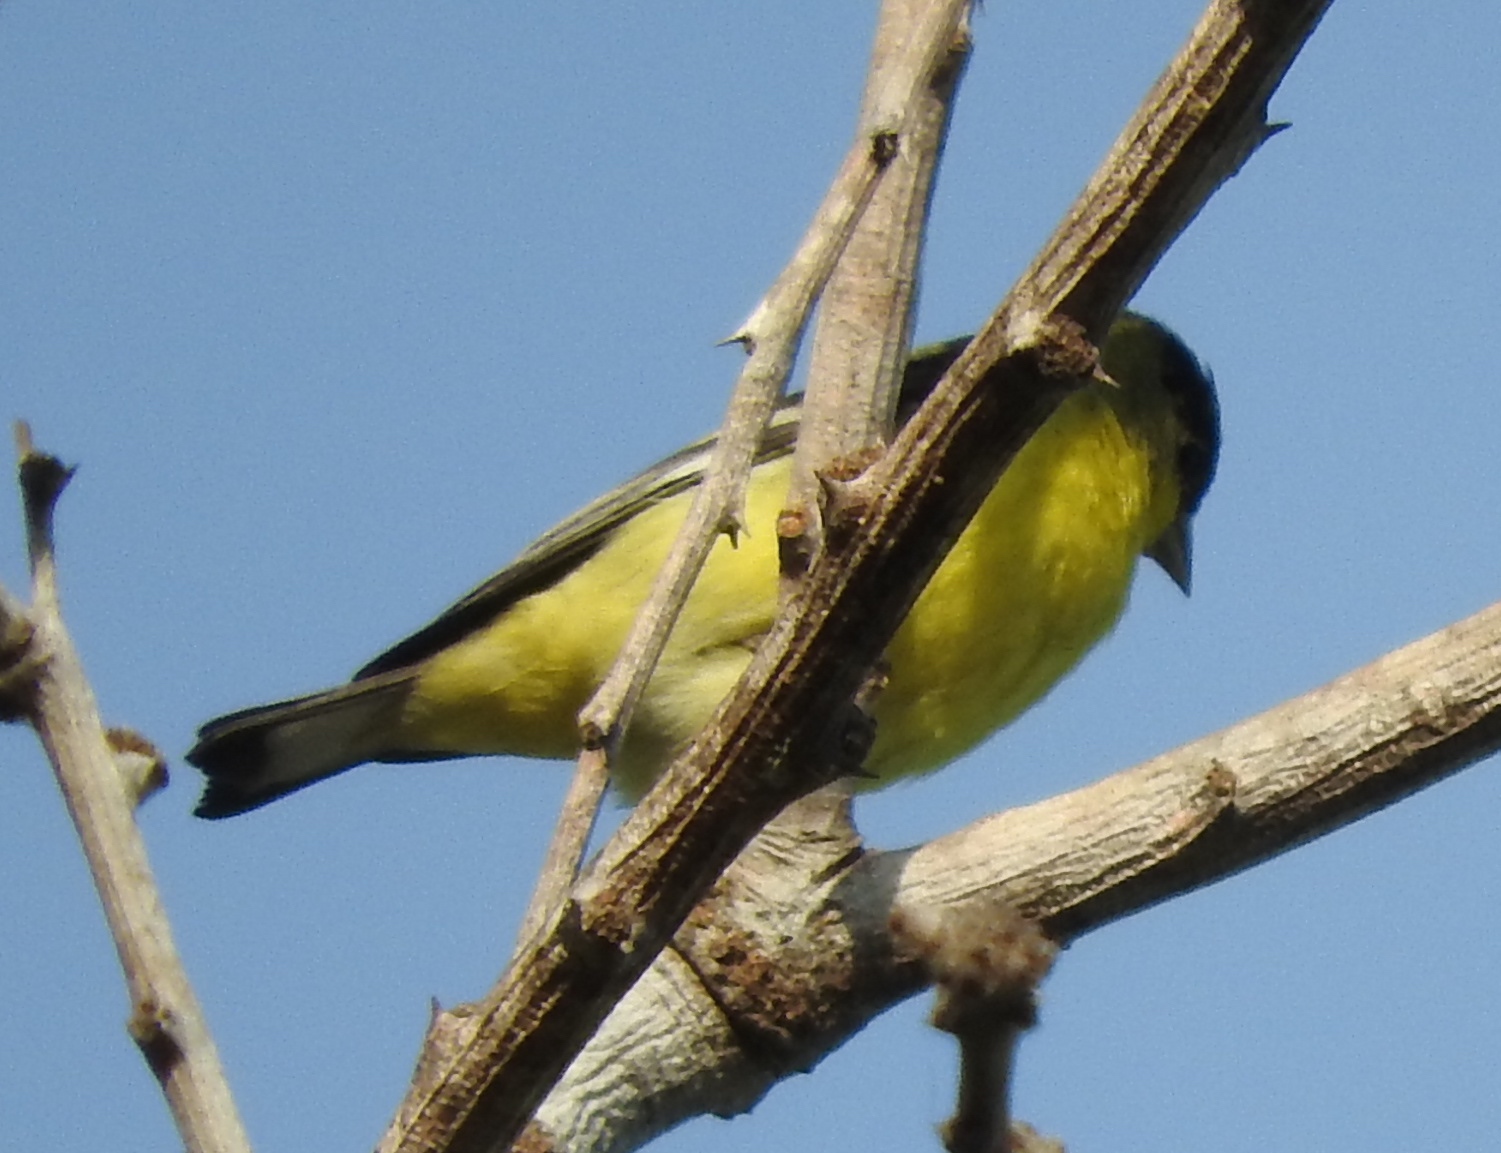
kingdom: Animalia
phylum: Chordata
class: Aves
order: Passeriformes
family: Fringillidae
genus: Spinus
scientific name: Spinus psaltria
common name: Lesser goldfinch
